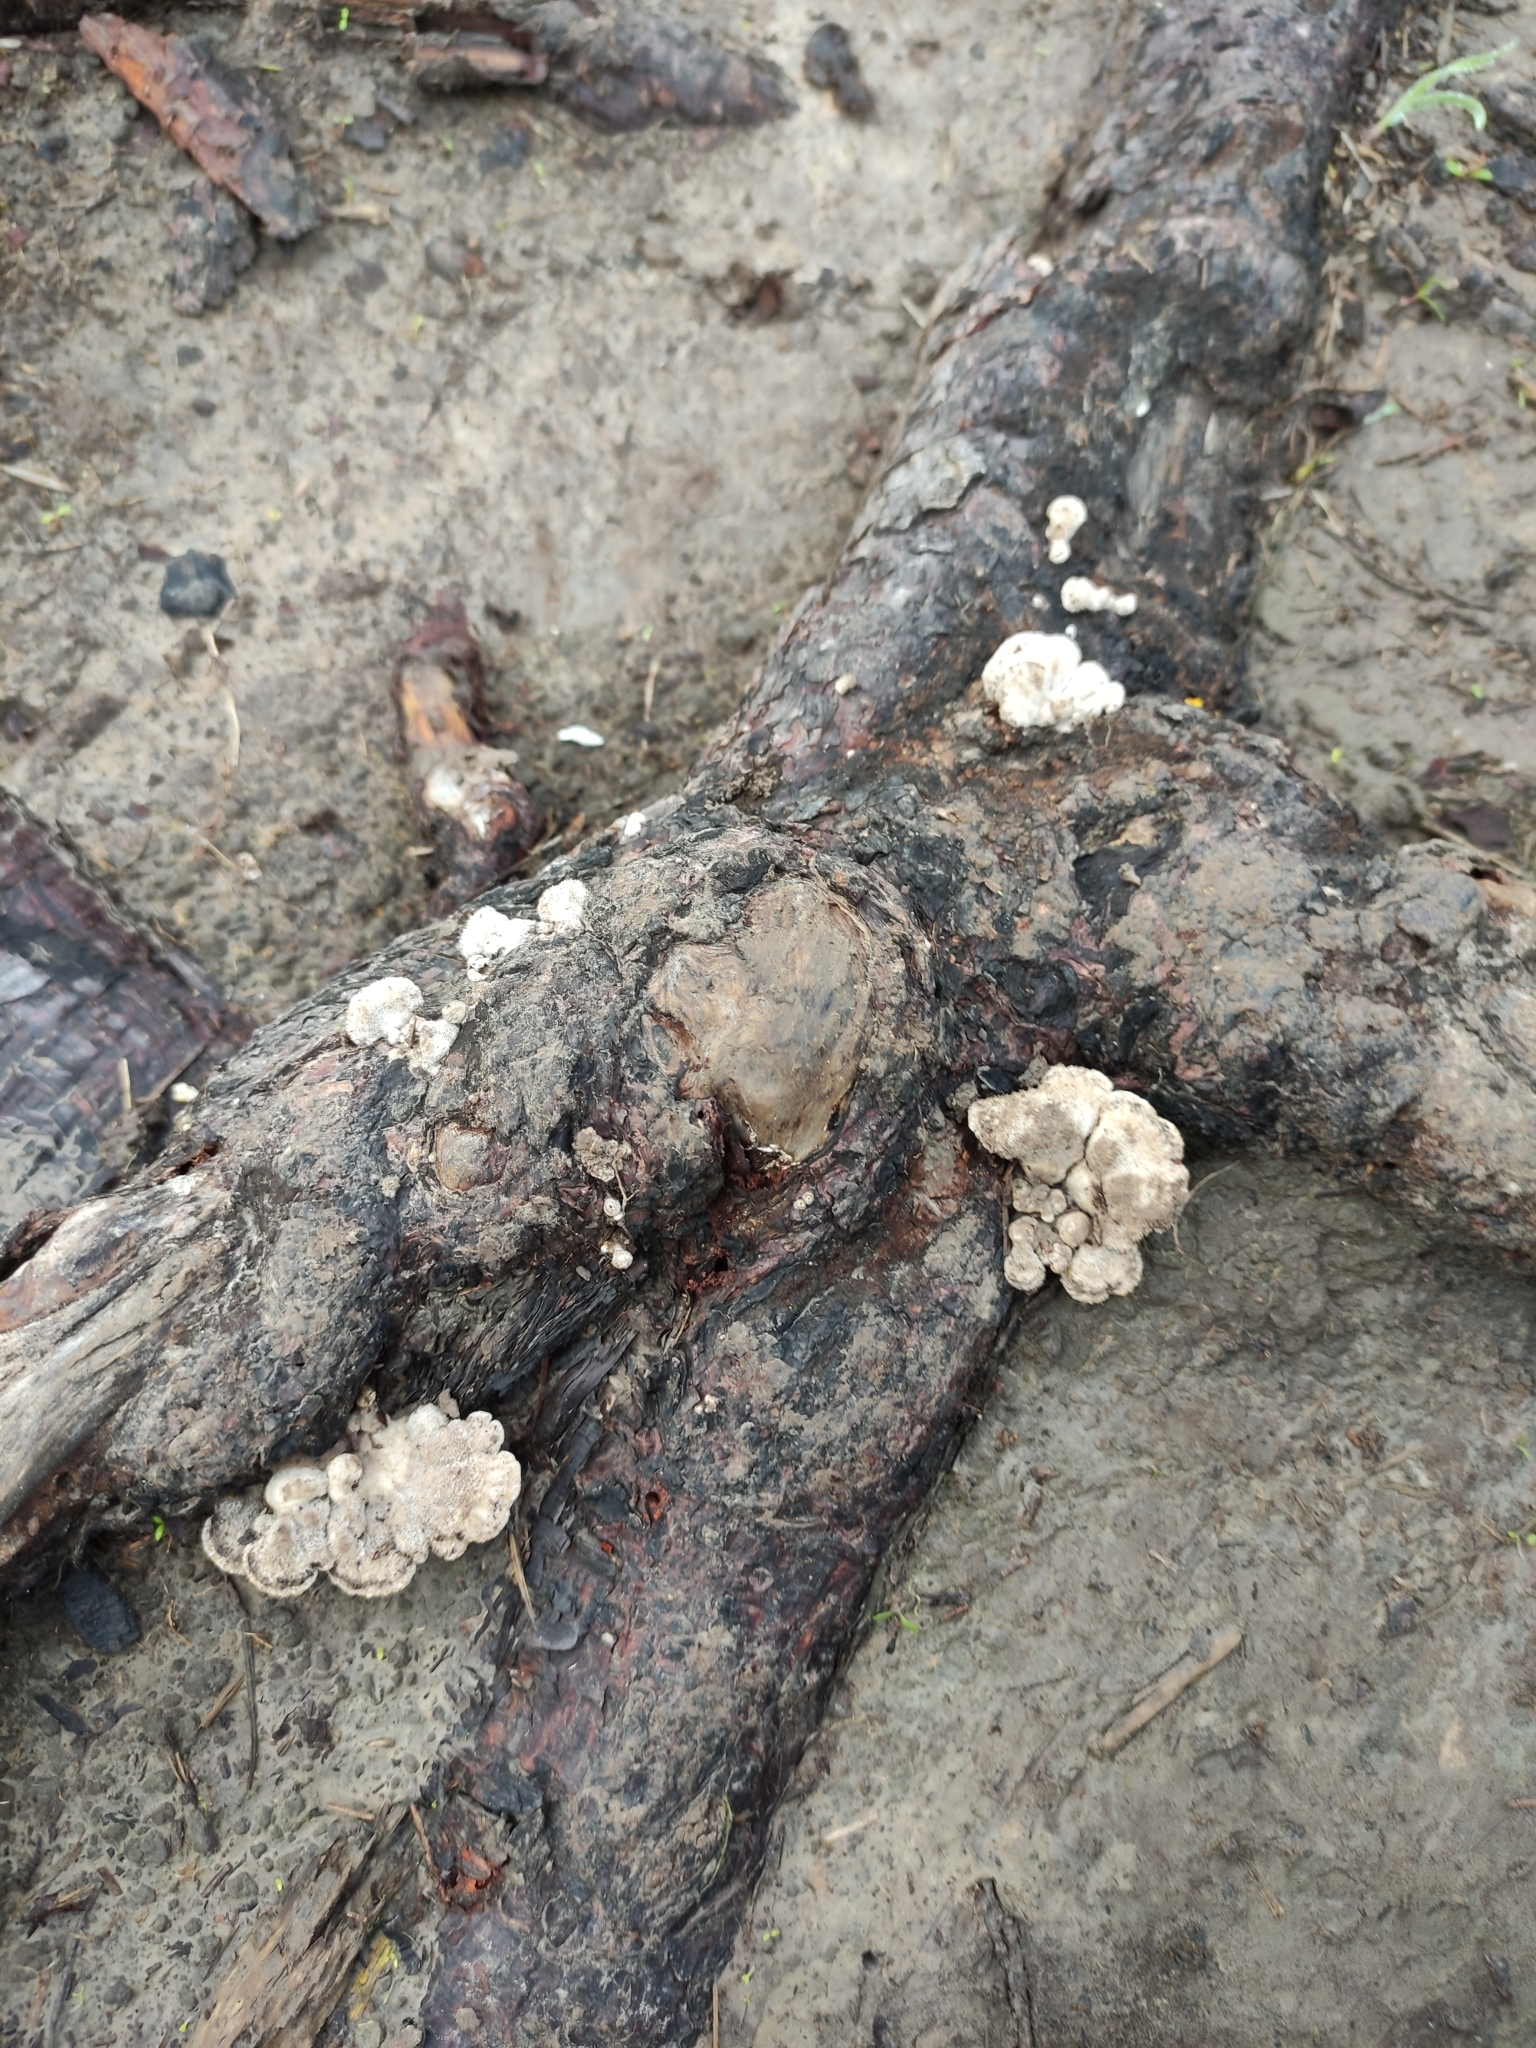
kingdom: Fungi
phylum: Basidiomycota
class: Agaricomycetes
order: Agaricales
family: Schizophyllaceae
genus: Schizophyllum
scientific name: Schizophyllum commune
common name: Common porecrust
